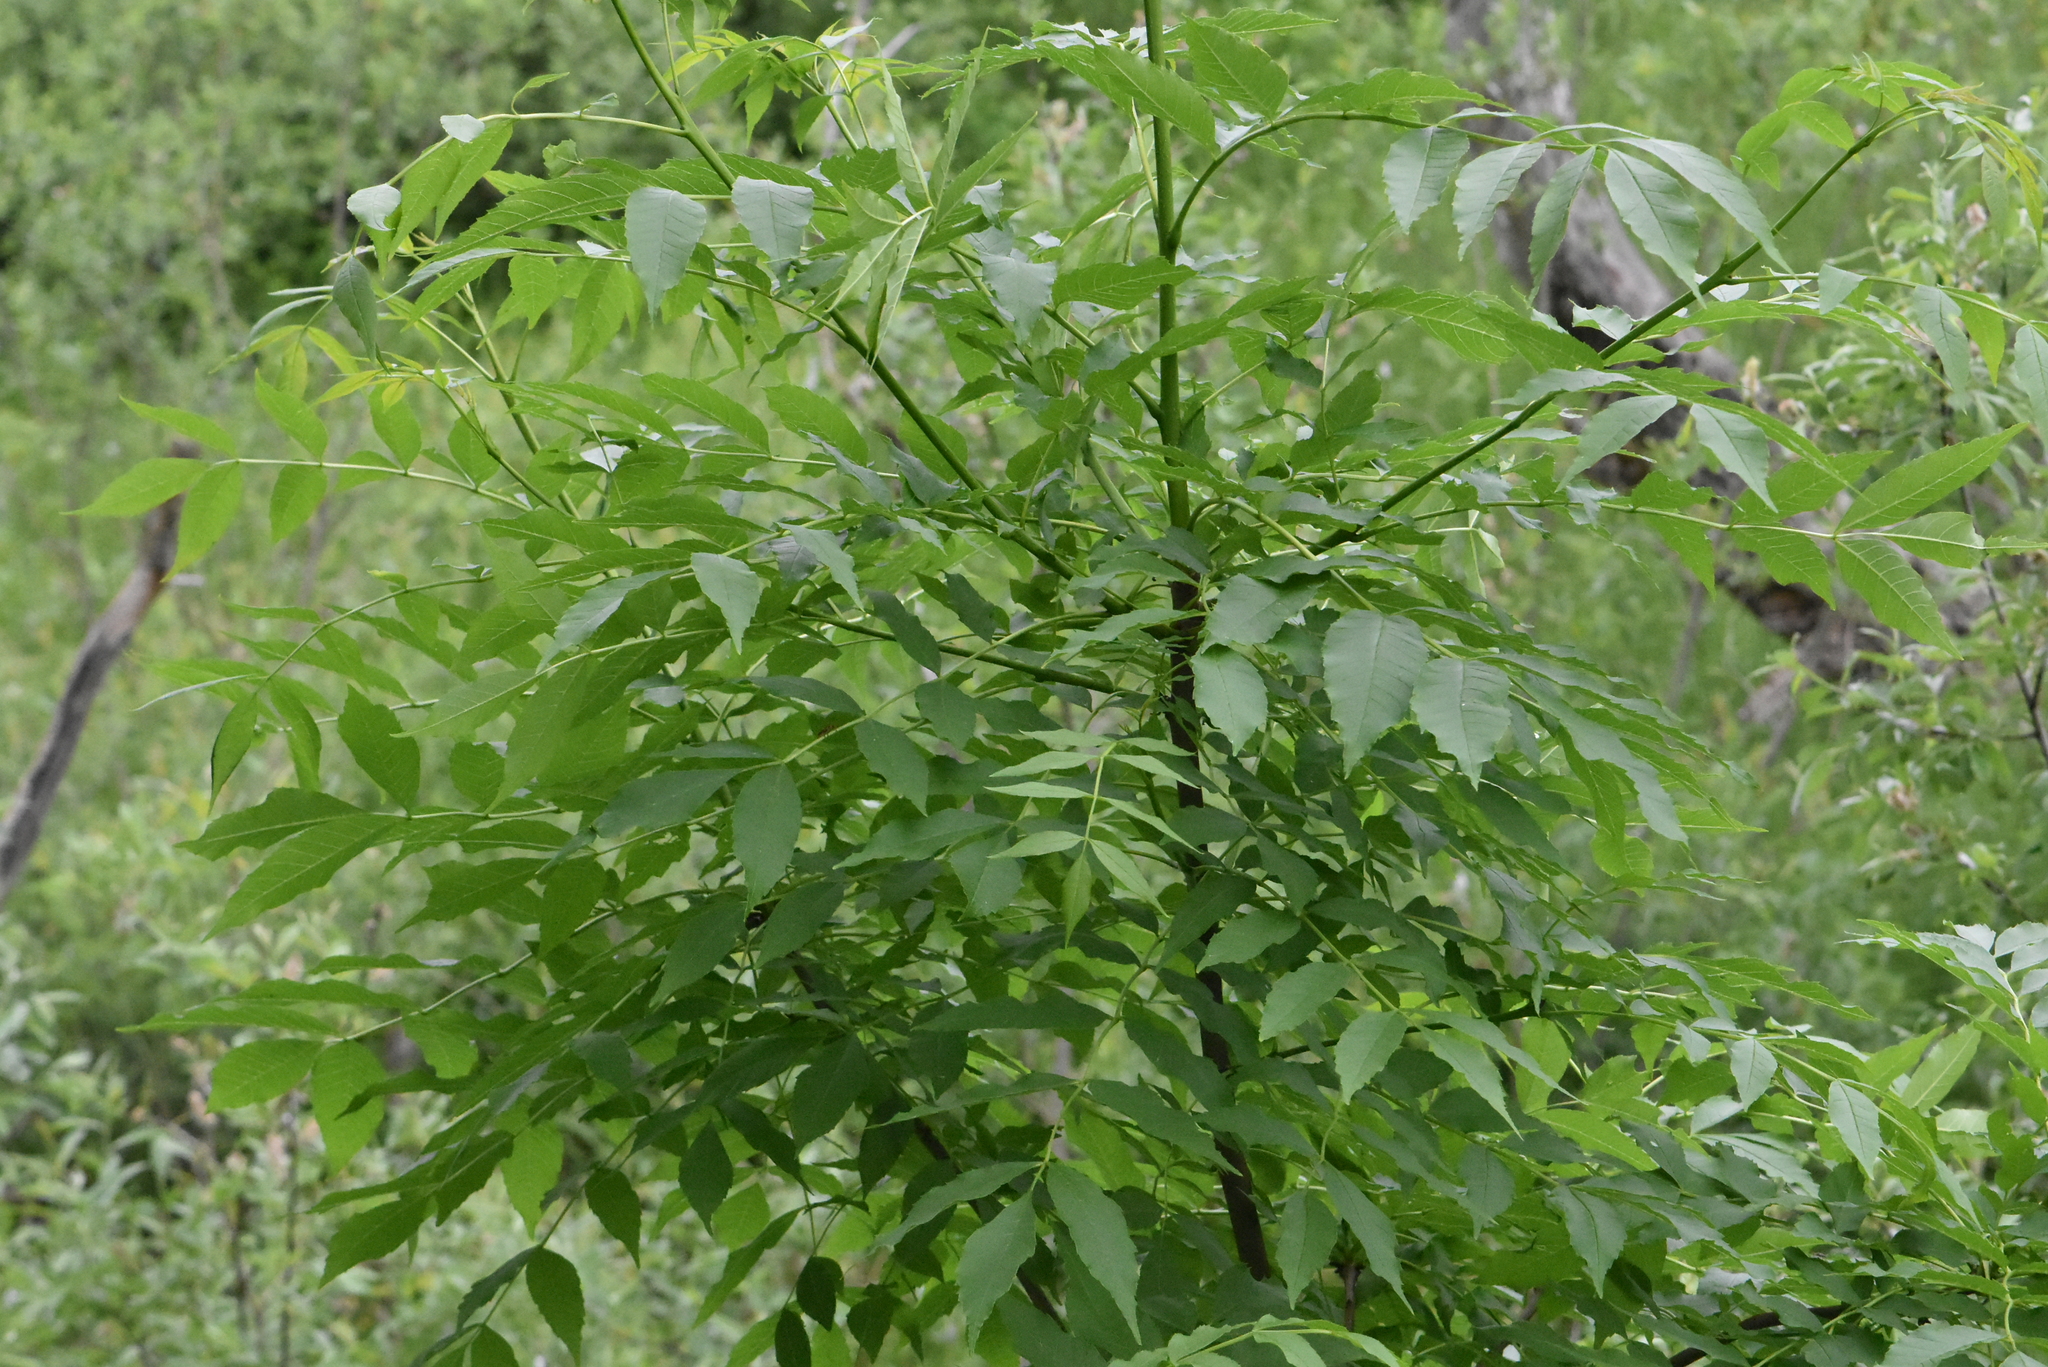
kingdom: Plantae
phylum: Tracheophyta
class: Magnoliopsida
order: Lamiales
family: Oleaceae
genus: Fraxinus
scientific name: Fraxinus excelsior
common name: European ash
